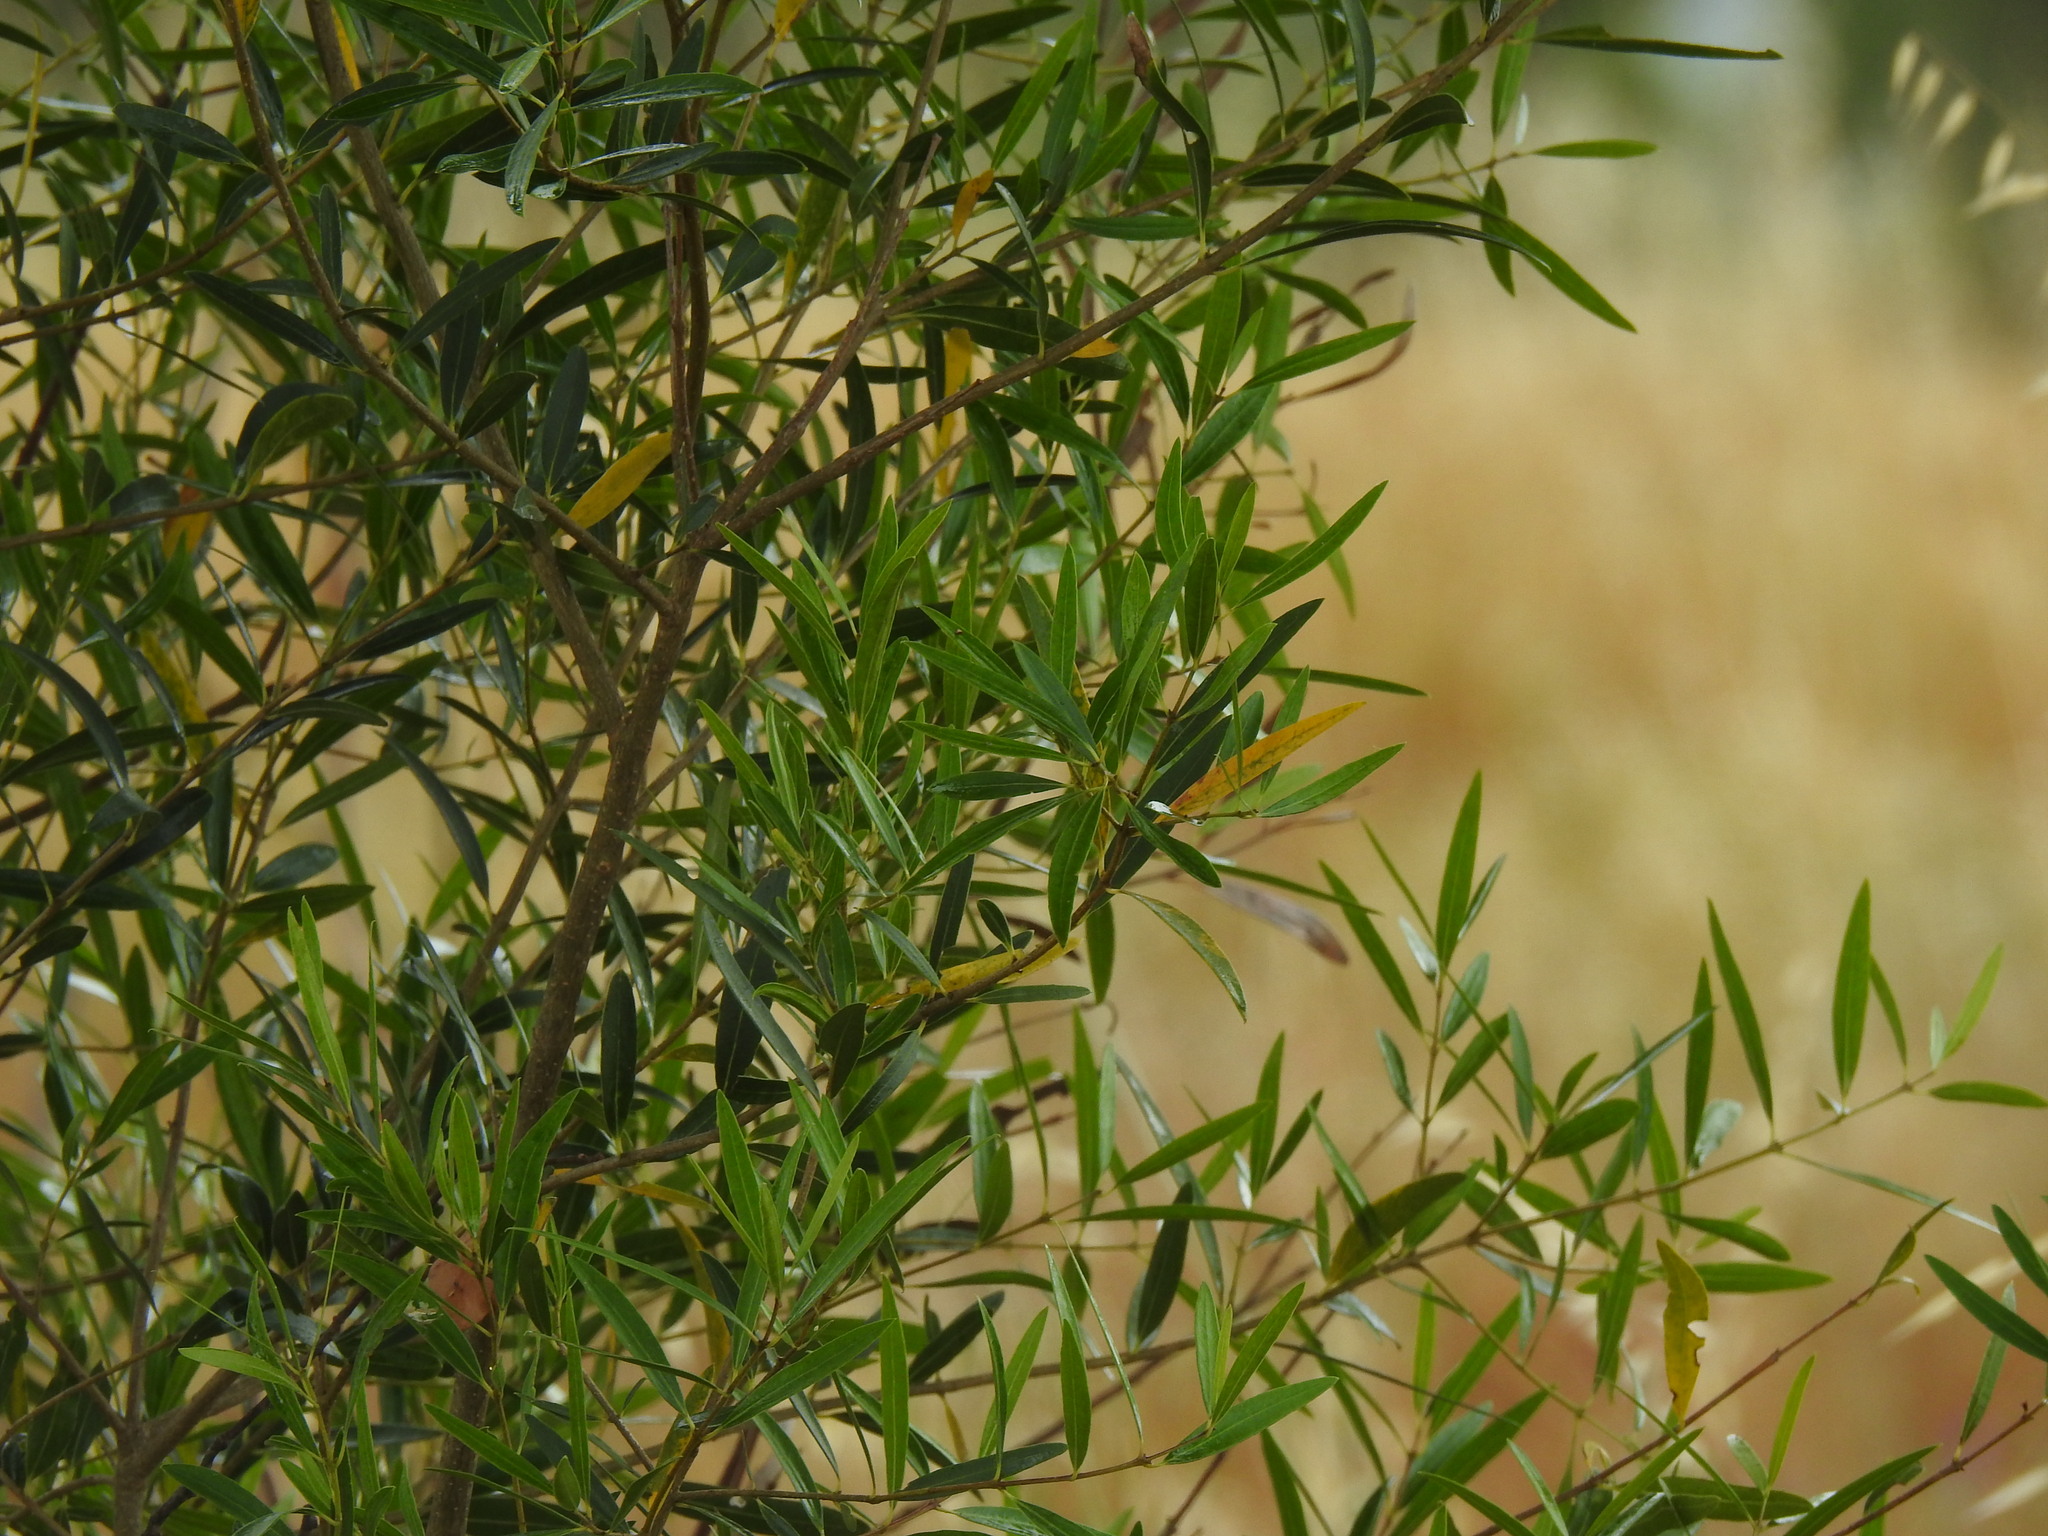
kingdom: Plantae
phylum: Tracheophyta
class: Magnoliopsida
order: Lamiales
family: Oleaceae
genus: Phillyrea
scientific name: Phillyrea angustifolia
